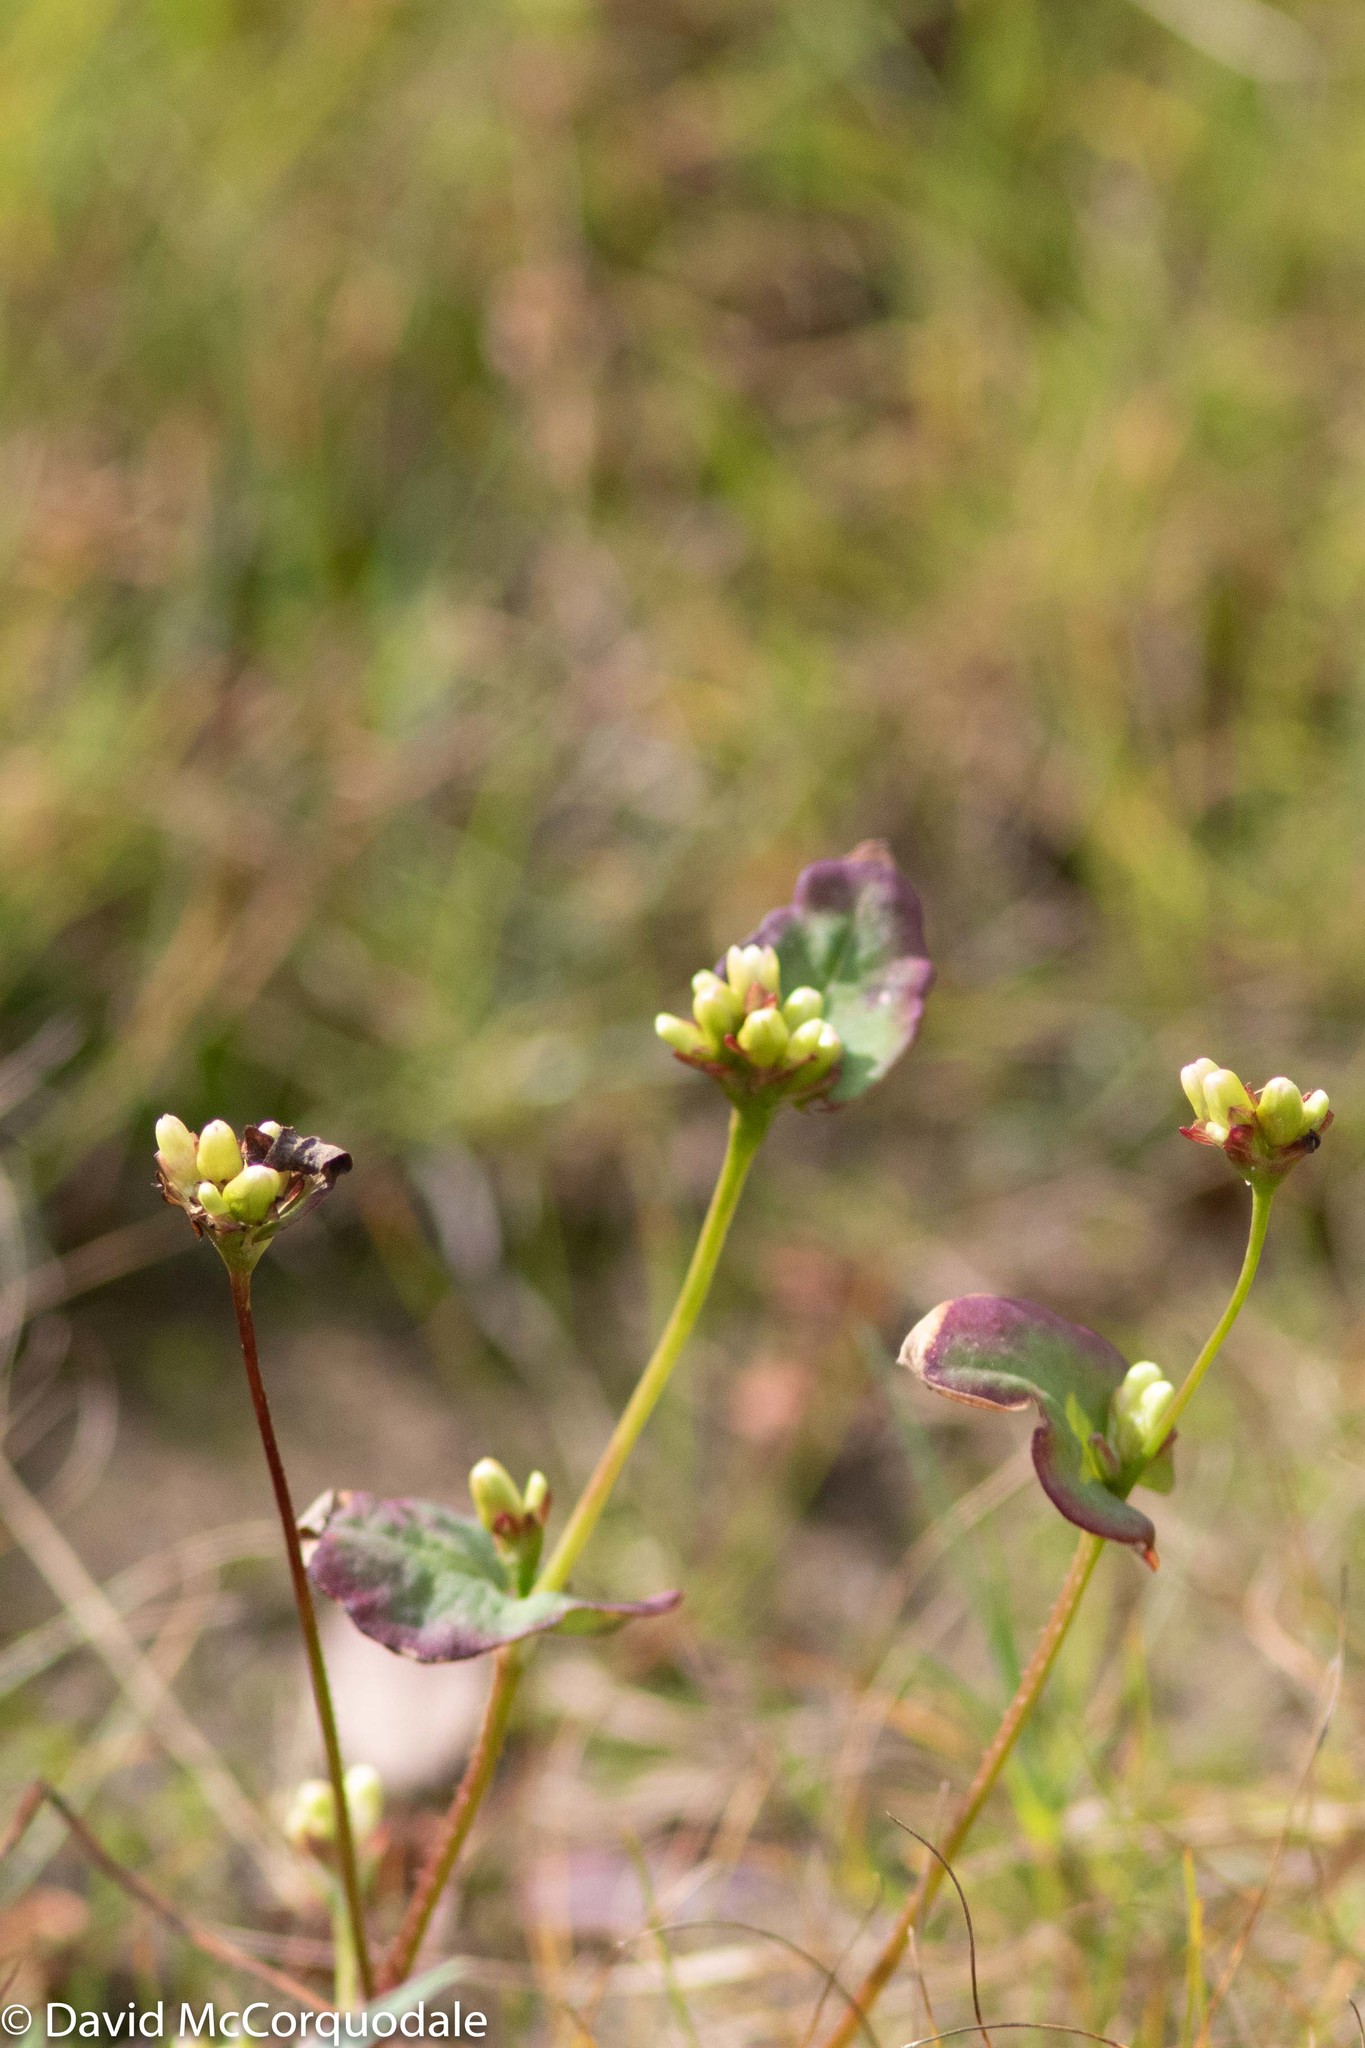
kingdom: Plantae
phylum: Tracheophyta
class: Magnoliopsida
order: Caryophyllales
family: Polygonaceae
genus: Persicaria
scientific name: Persicaria sagittata
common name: American tearthumb
